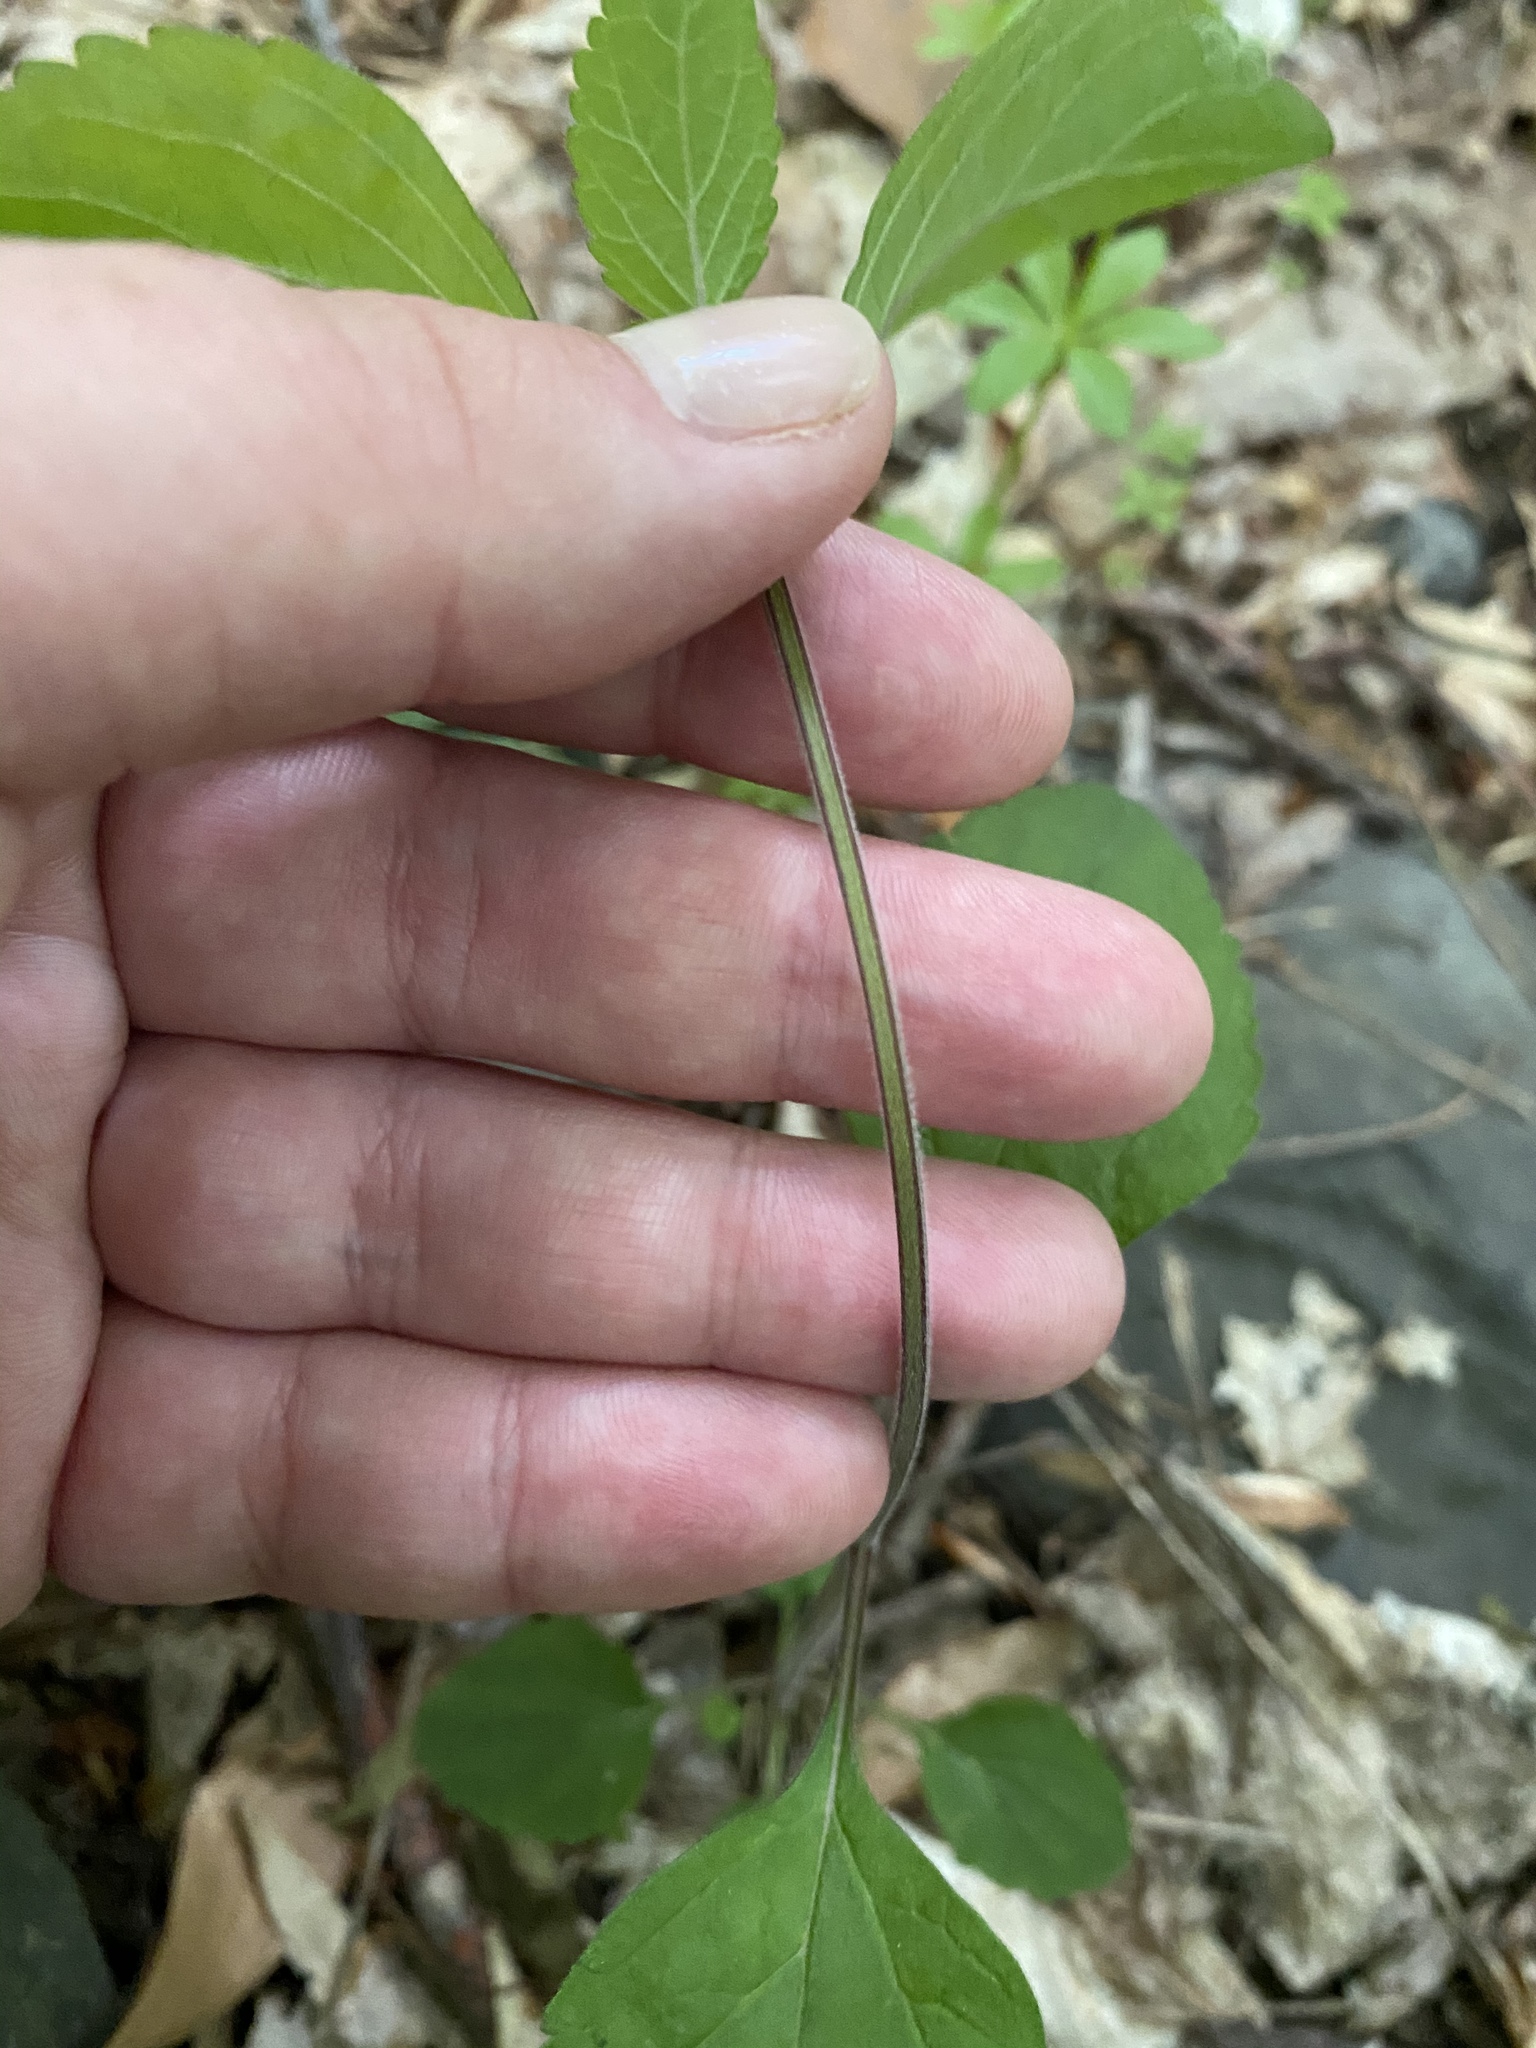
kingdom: Plantae
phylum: Tracheophyta
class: Magnoliopsida
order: Lamiales
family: Phrymaceae
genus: Phryma
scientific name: Phryma leptostachya
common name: American lopseed
